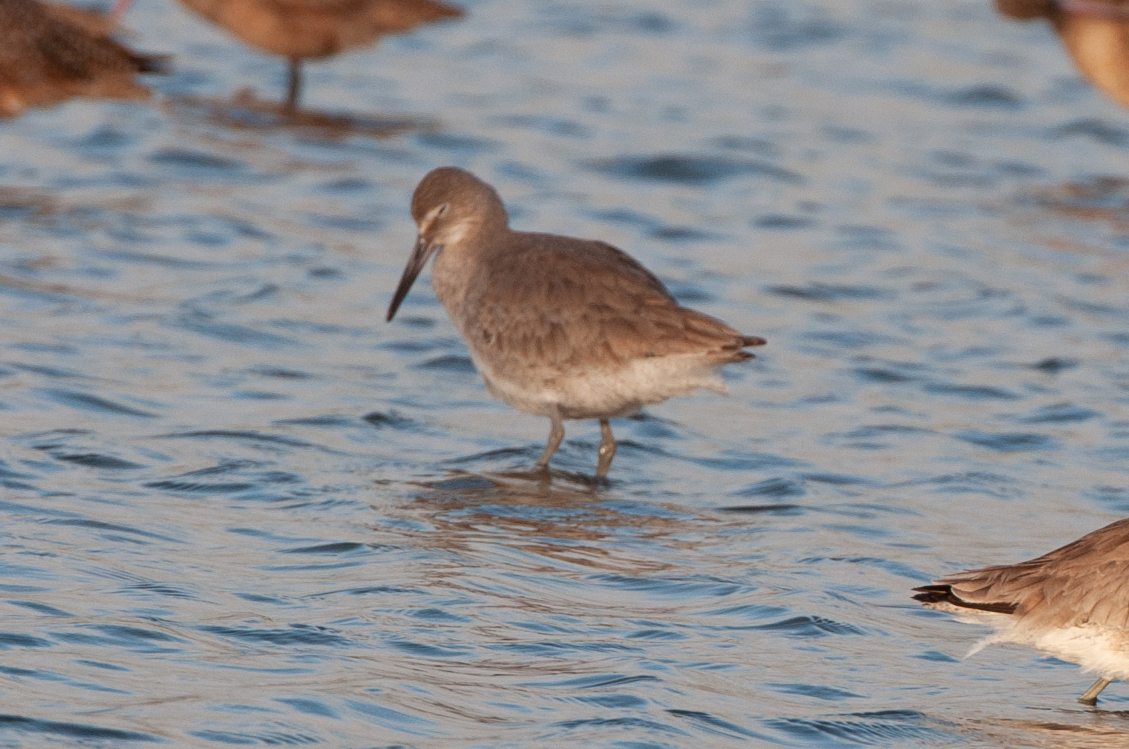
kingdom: Animalia
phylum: Chordata
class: Aves
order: Charadriiformes
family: Scolopacidae
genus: Tringa
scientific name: Tringa semipalmata
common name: Willet
